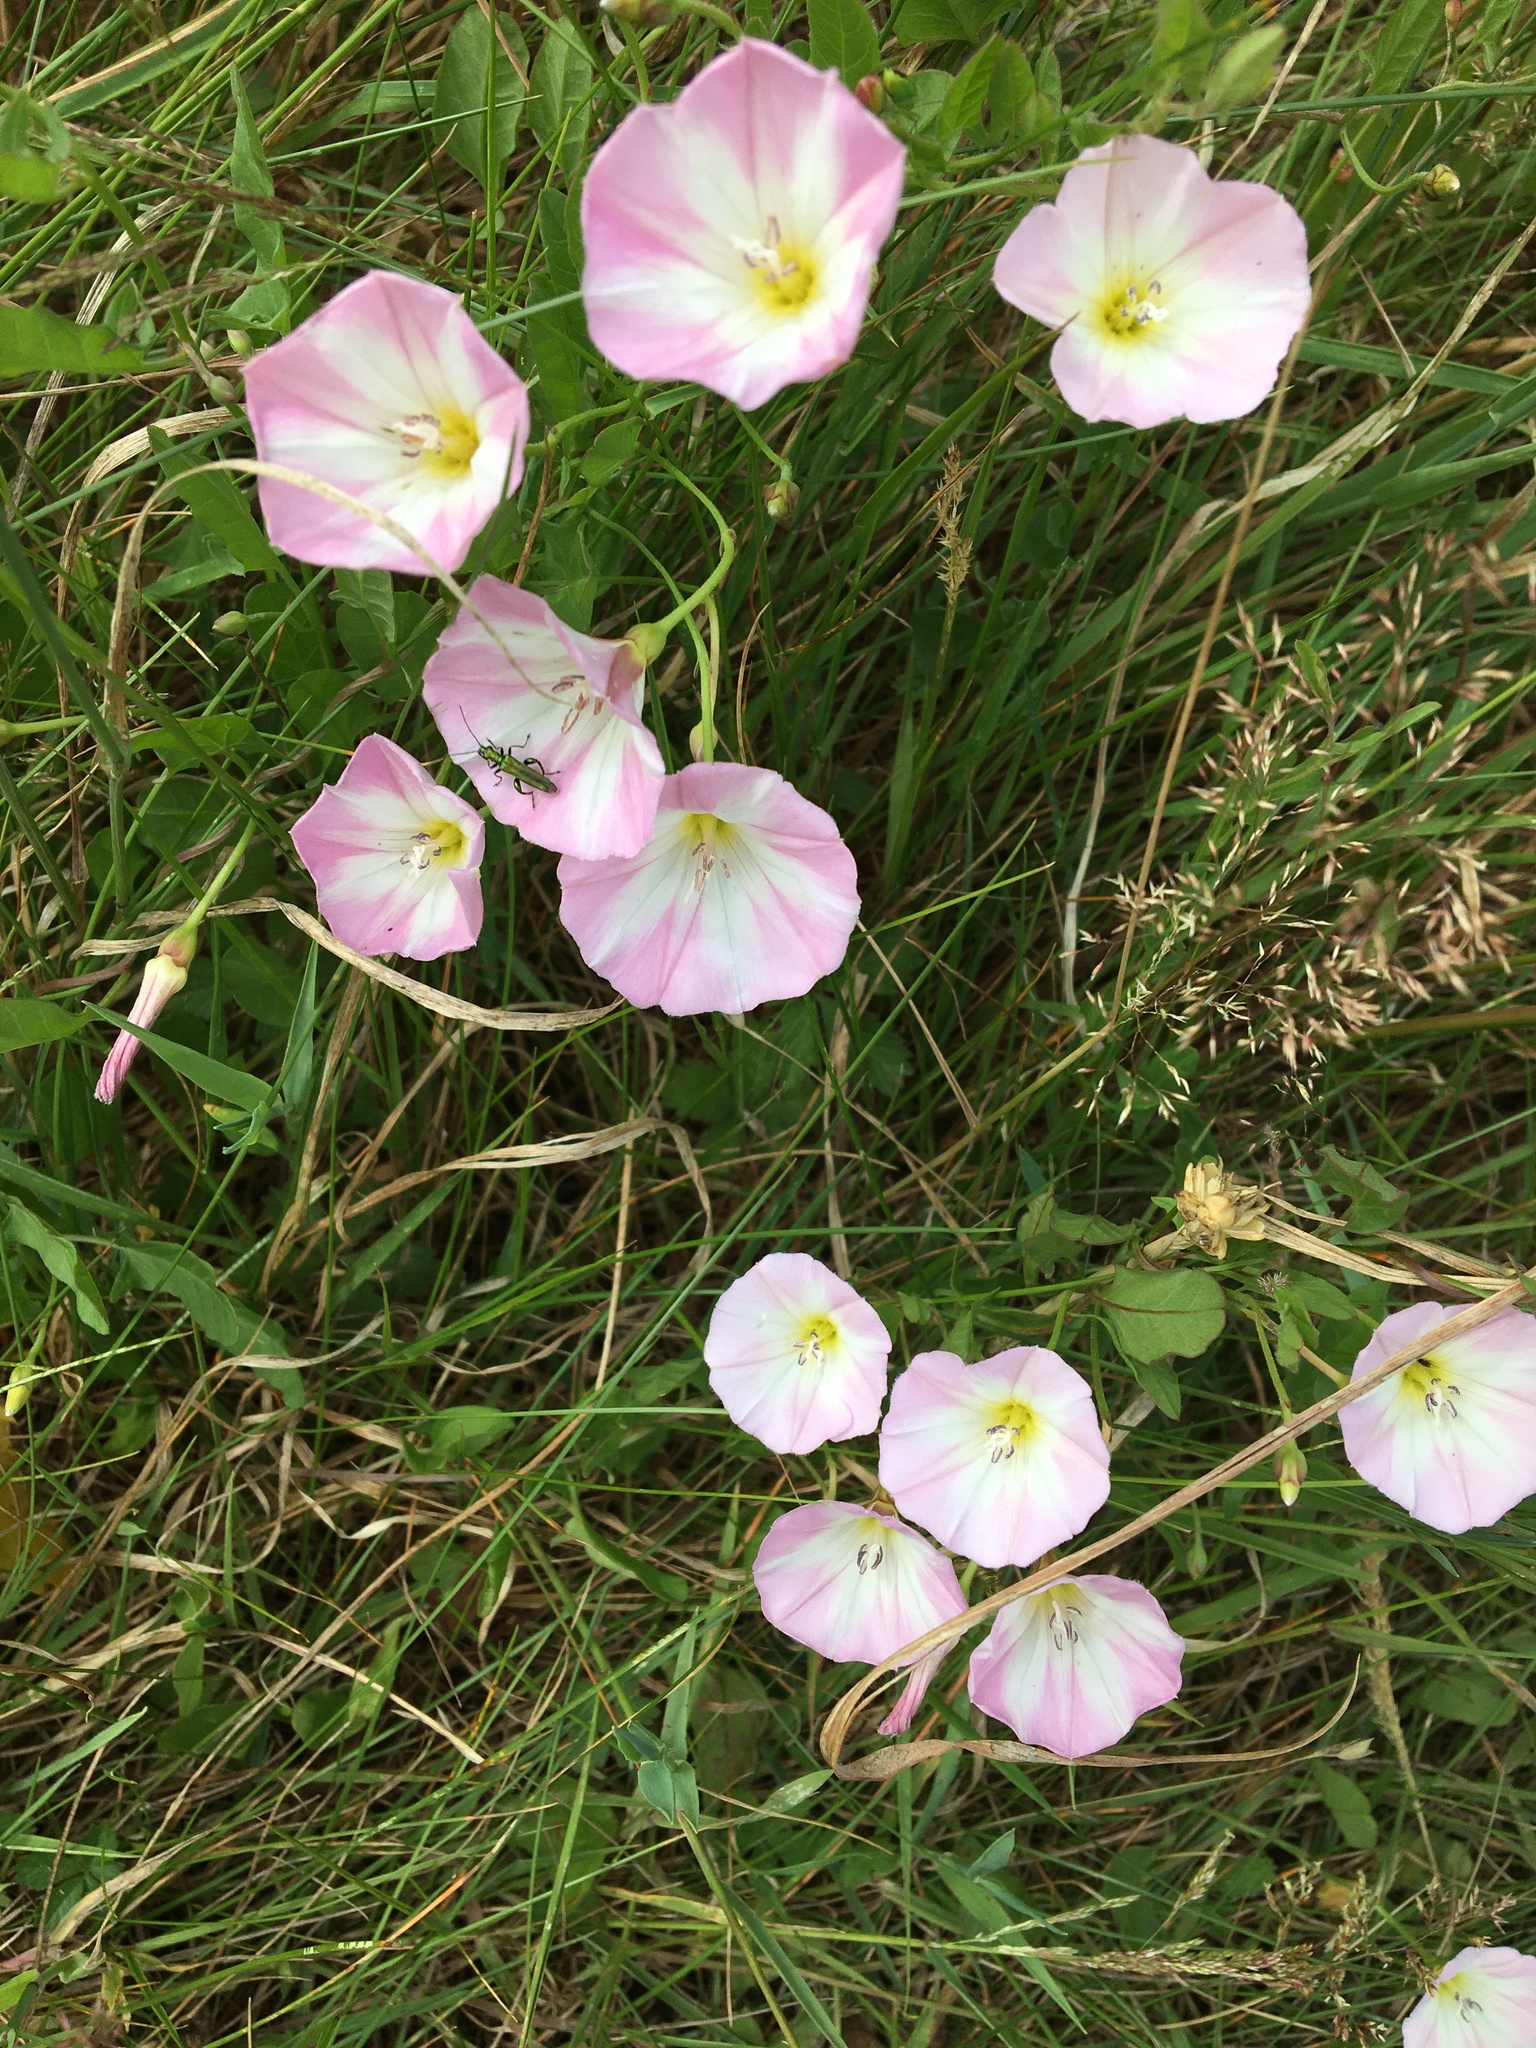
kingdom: Plantae
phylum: Tracheophyta
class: Magnoliopsida
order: Solanales
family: Convolvulaceae
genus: Convolvulus
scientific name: Convolvulus arvensis
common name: Field bindweed
